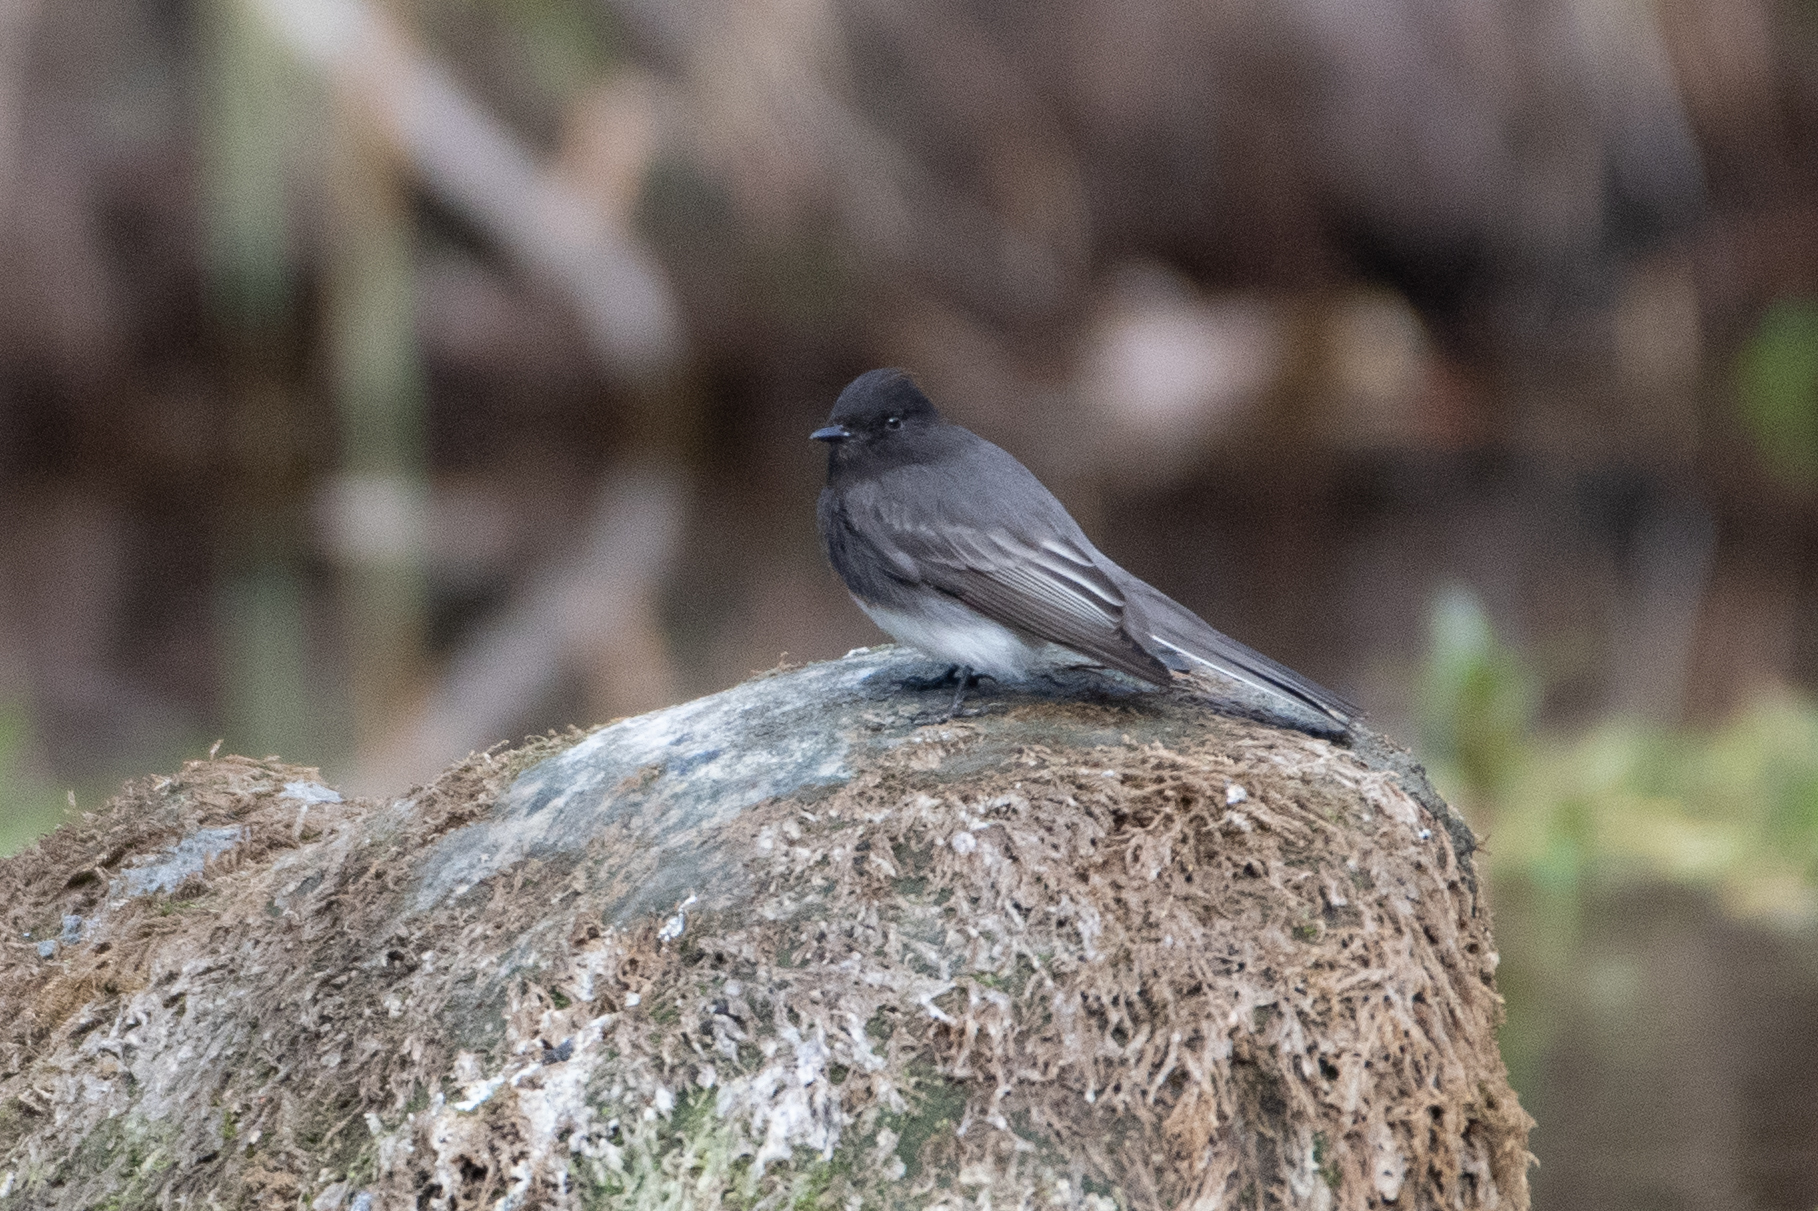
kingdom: Animalia
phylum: Chordata
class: Aves
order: Passeriformes
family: Tyrannidae
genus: Sayornis
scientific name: Sayornis nigricans
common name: Black phoebe
